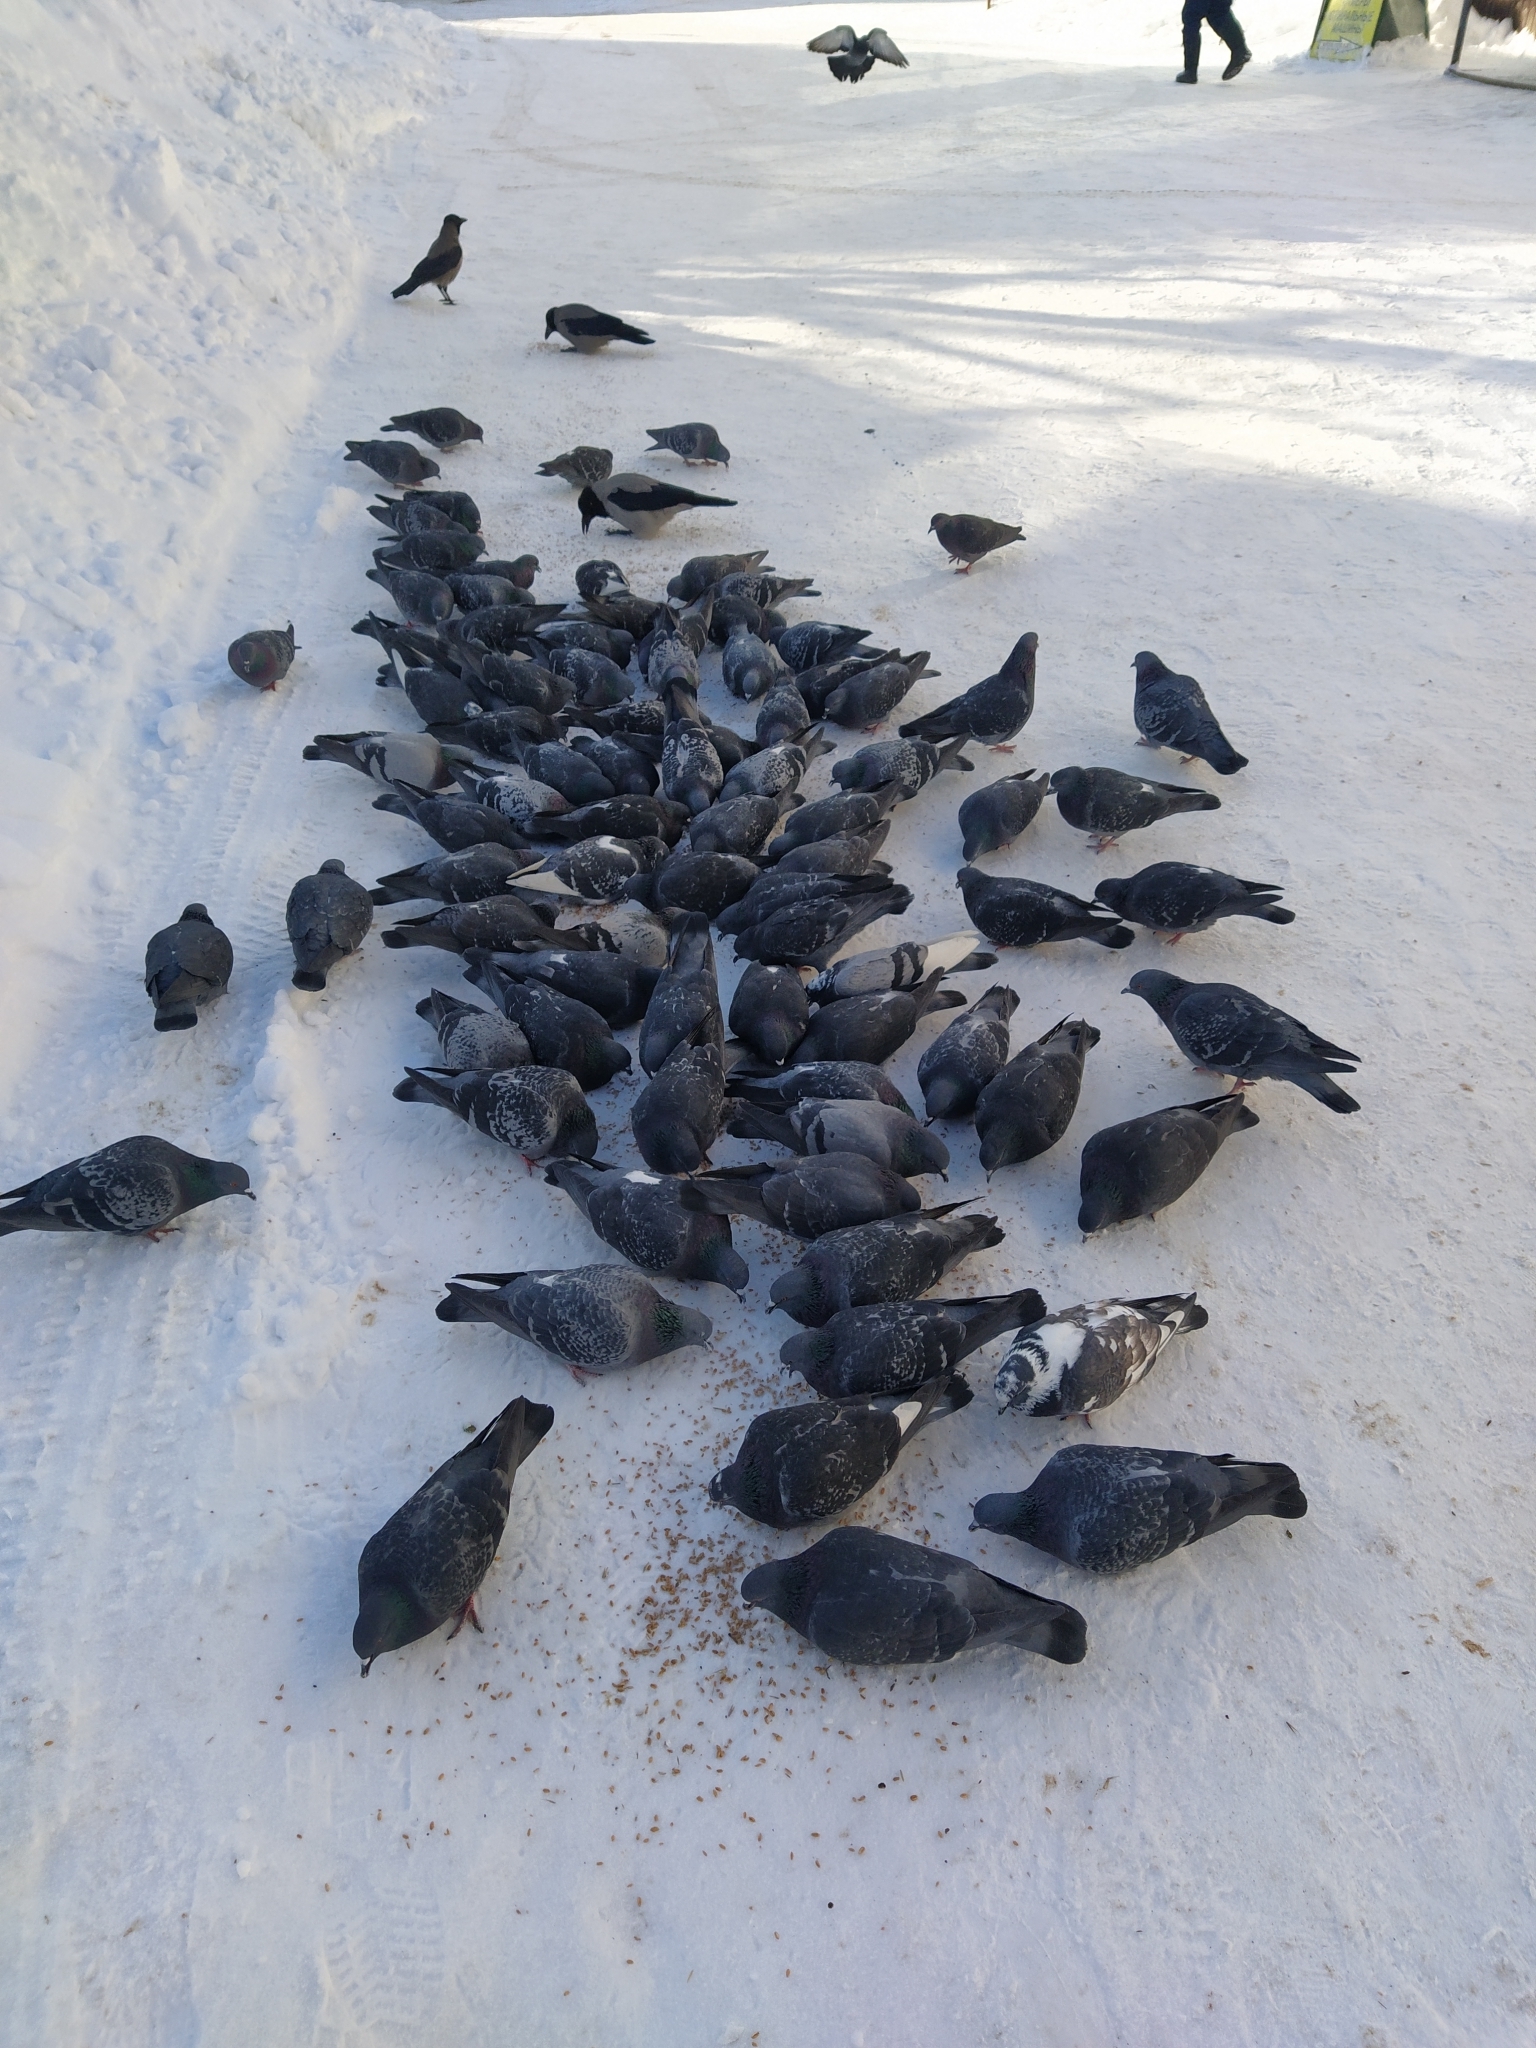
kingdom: Animalia
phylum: Chordata
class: Aves
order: Columbiformes
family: Columbidae
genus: Columba
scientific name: Columba livia
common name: Rock pigeon
